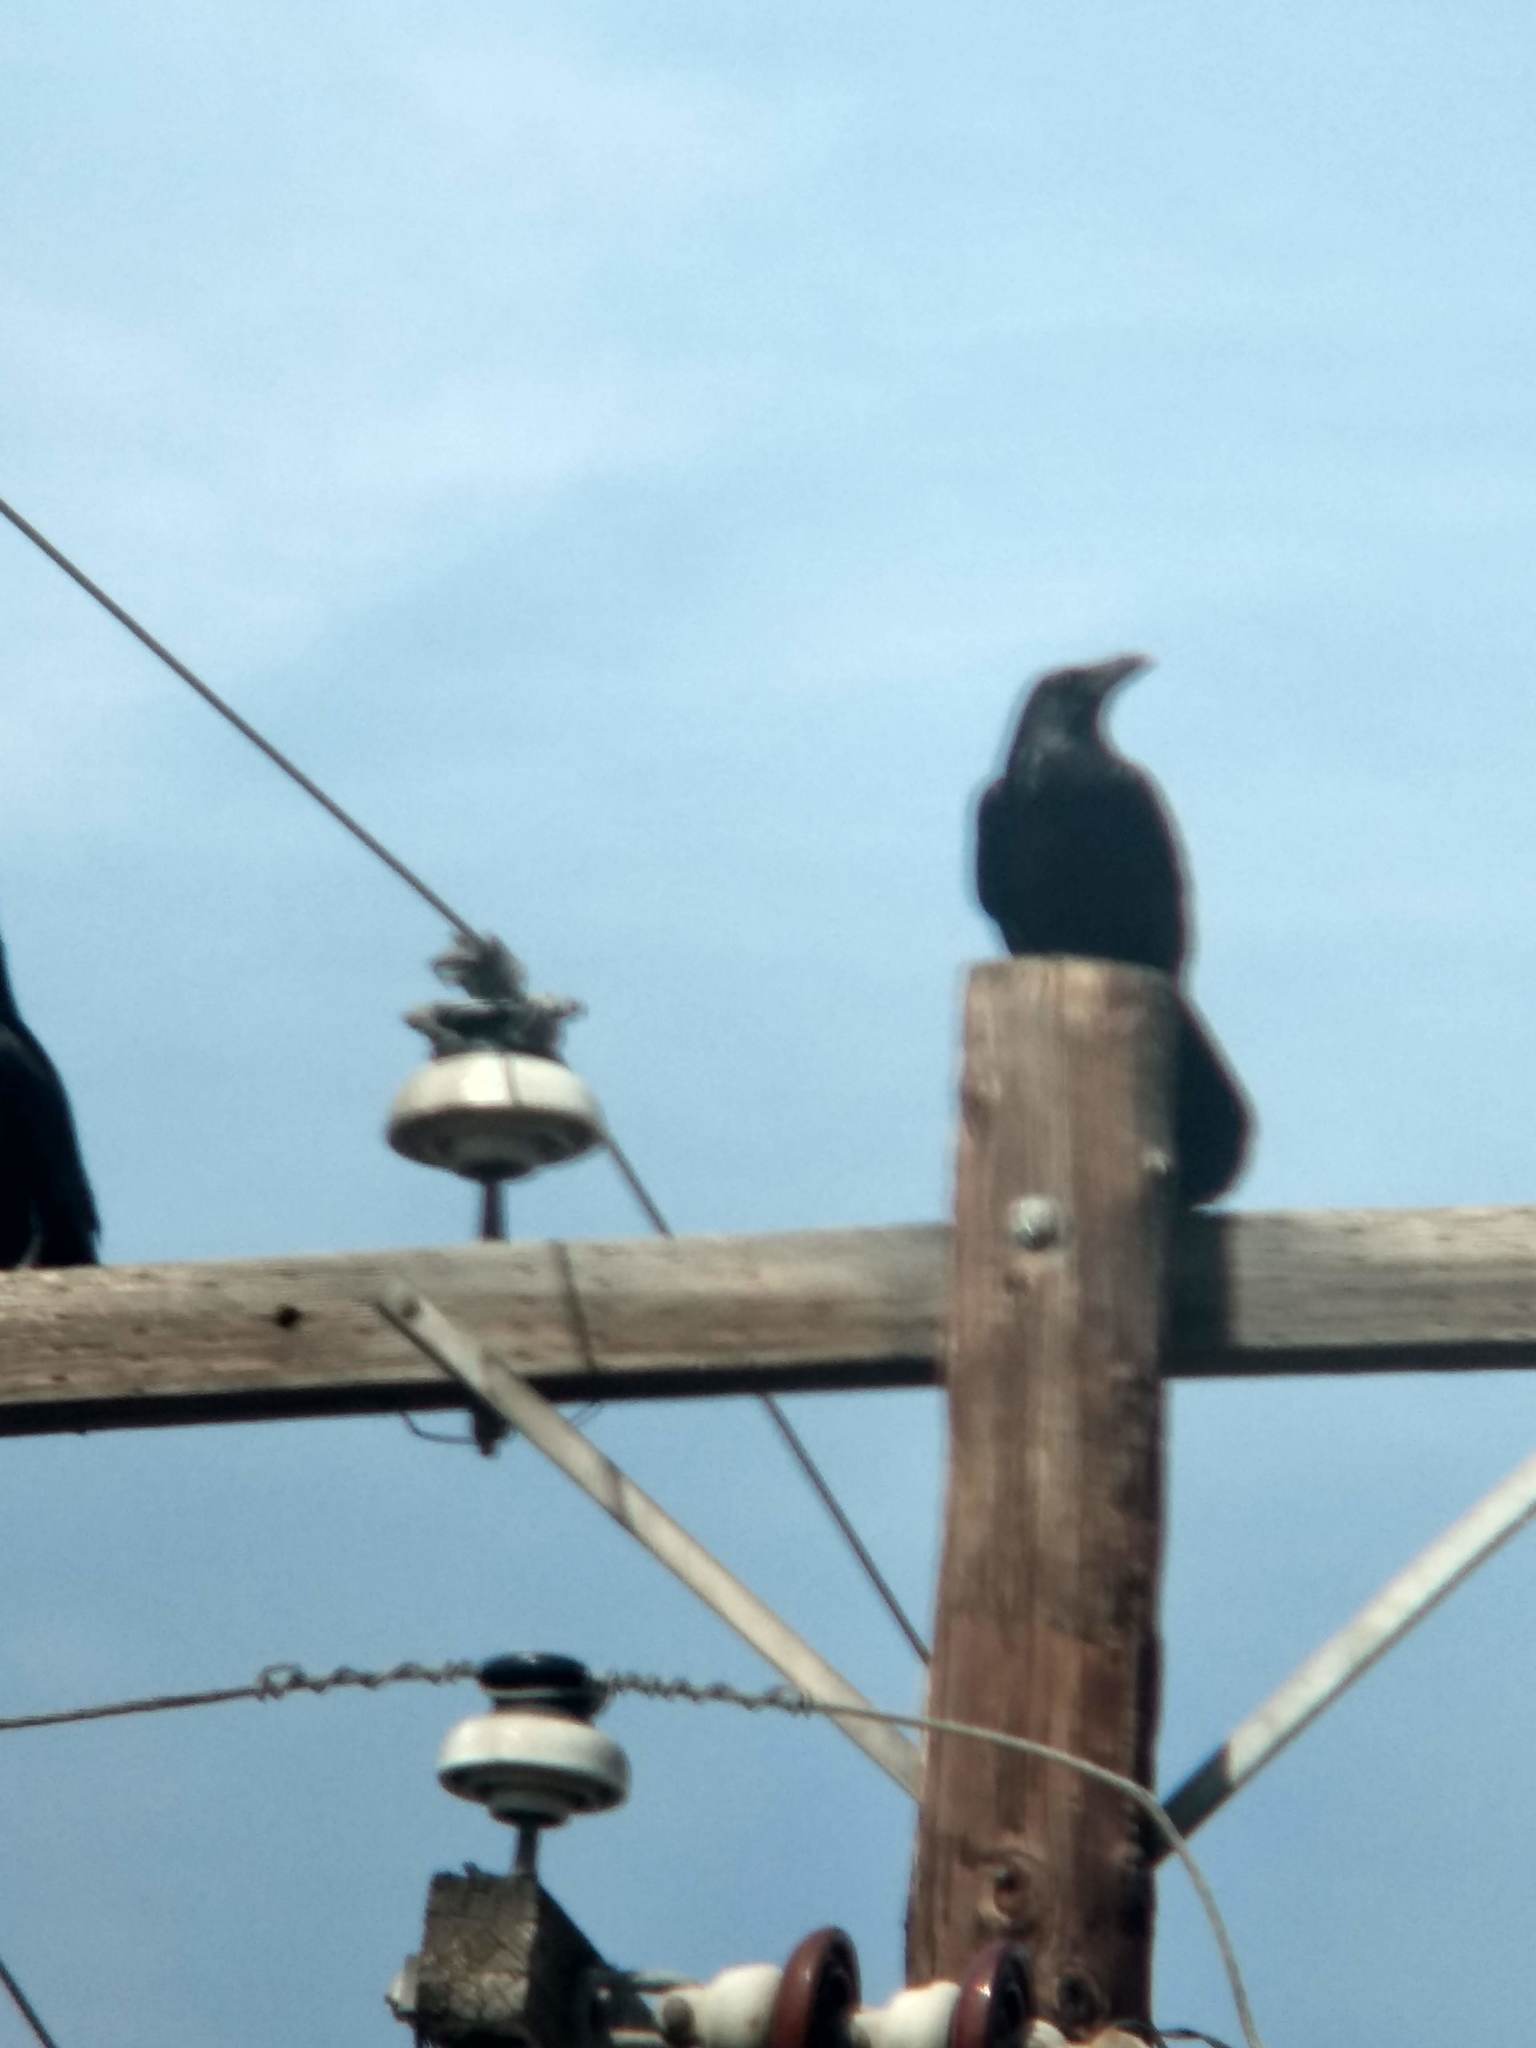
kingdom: Animalia
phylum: Chordata
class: Aves
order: Passeriformes
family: Corvidae
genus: Corvus
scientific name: Corvus corax
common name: Common raven
